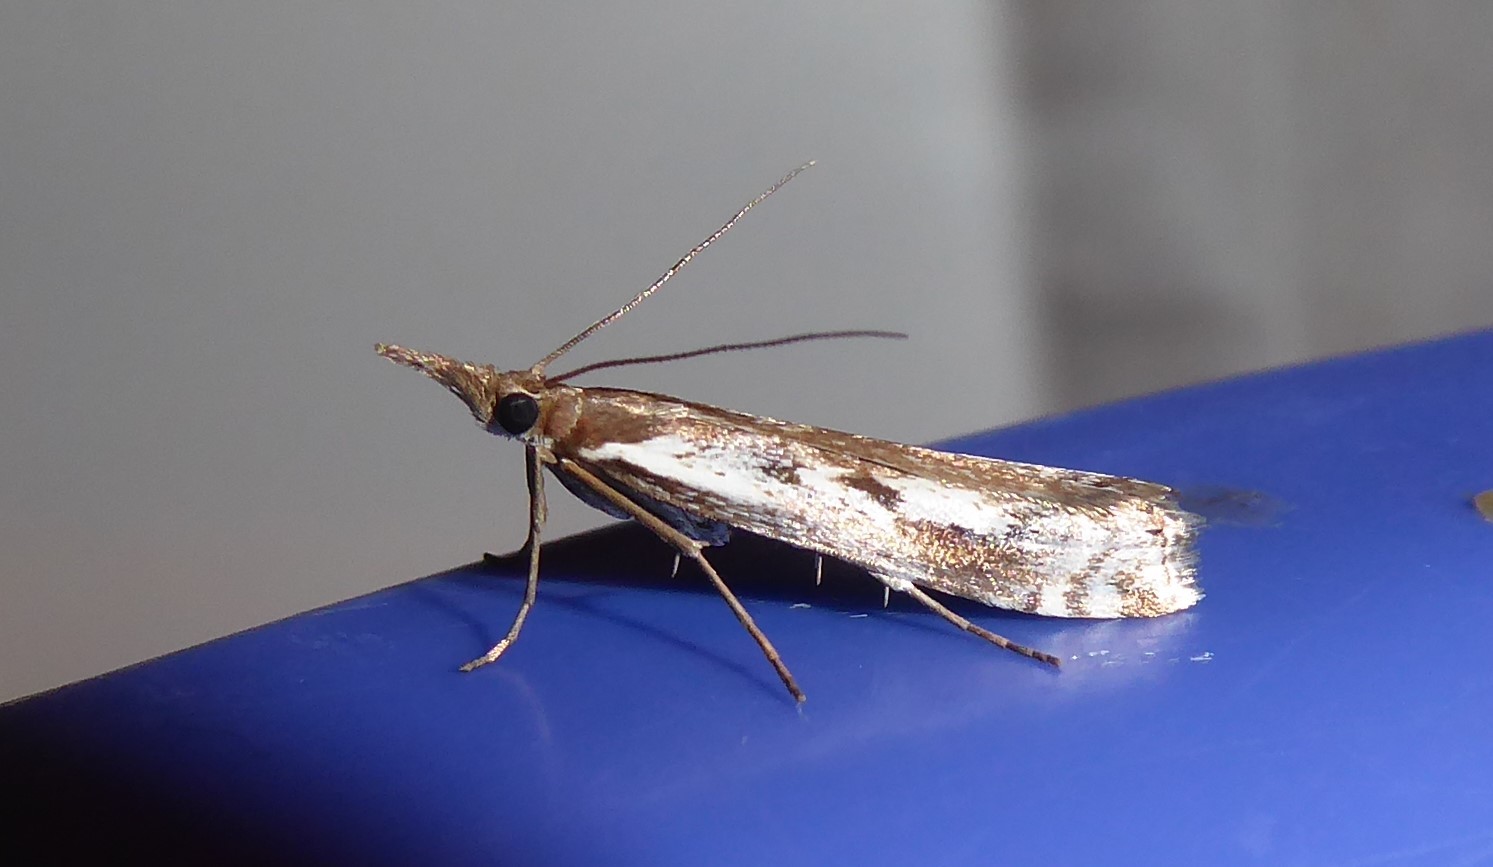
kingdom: Animalia
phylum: Arthropoda
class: Insecta
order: Lepidoptera
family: Crambidae
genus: Orocrambus
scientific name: Orocrambus vulgaris
